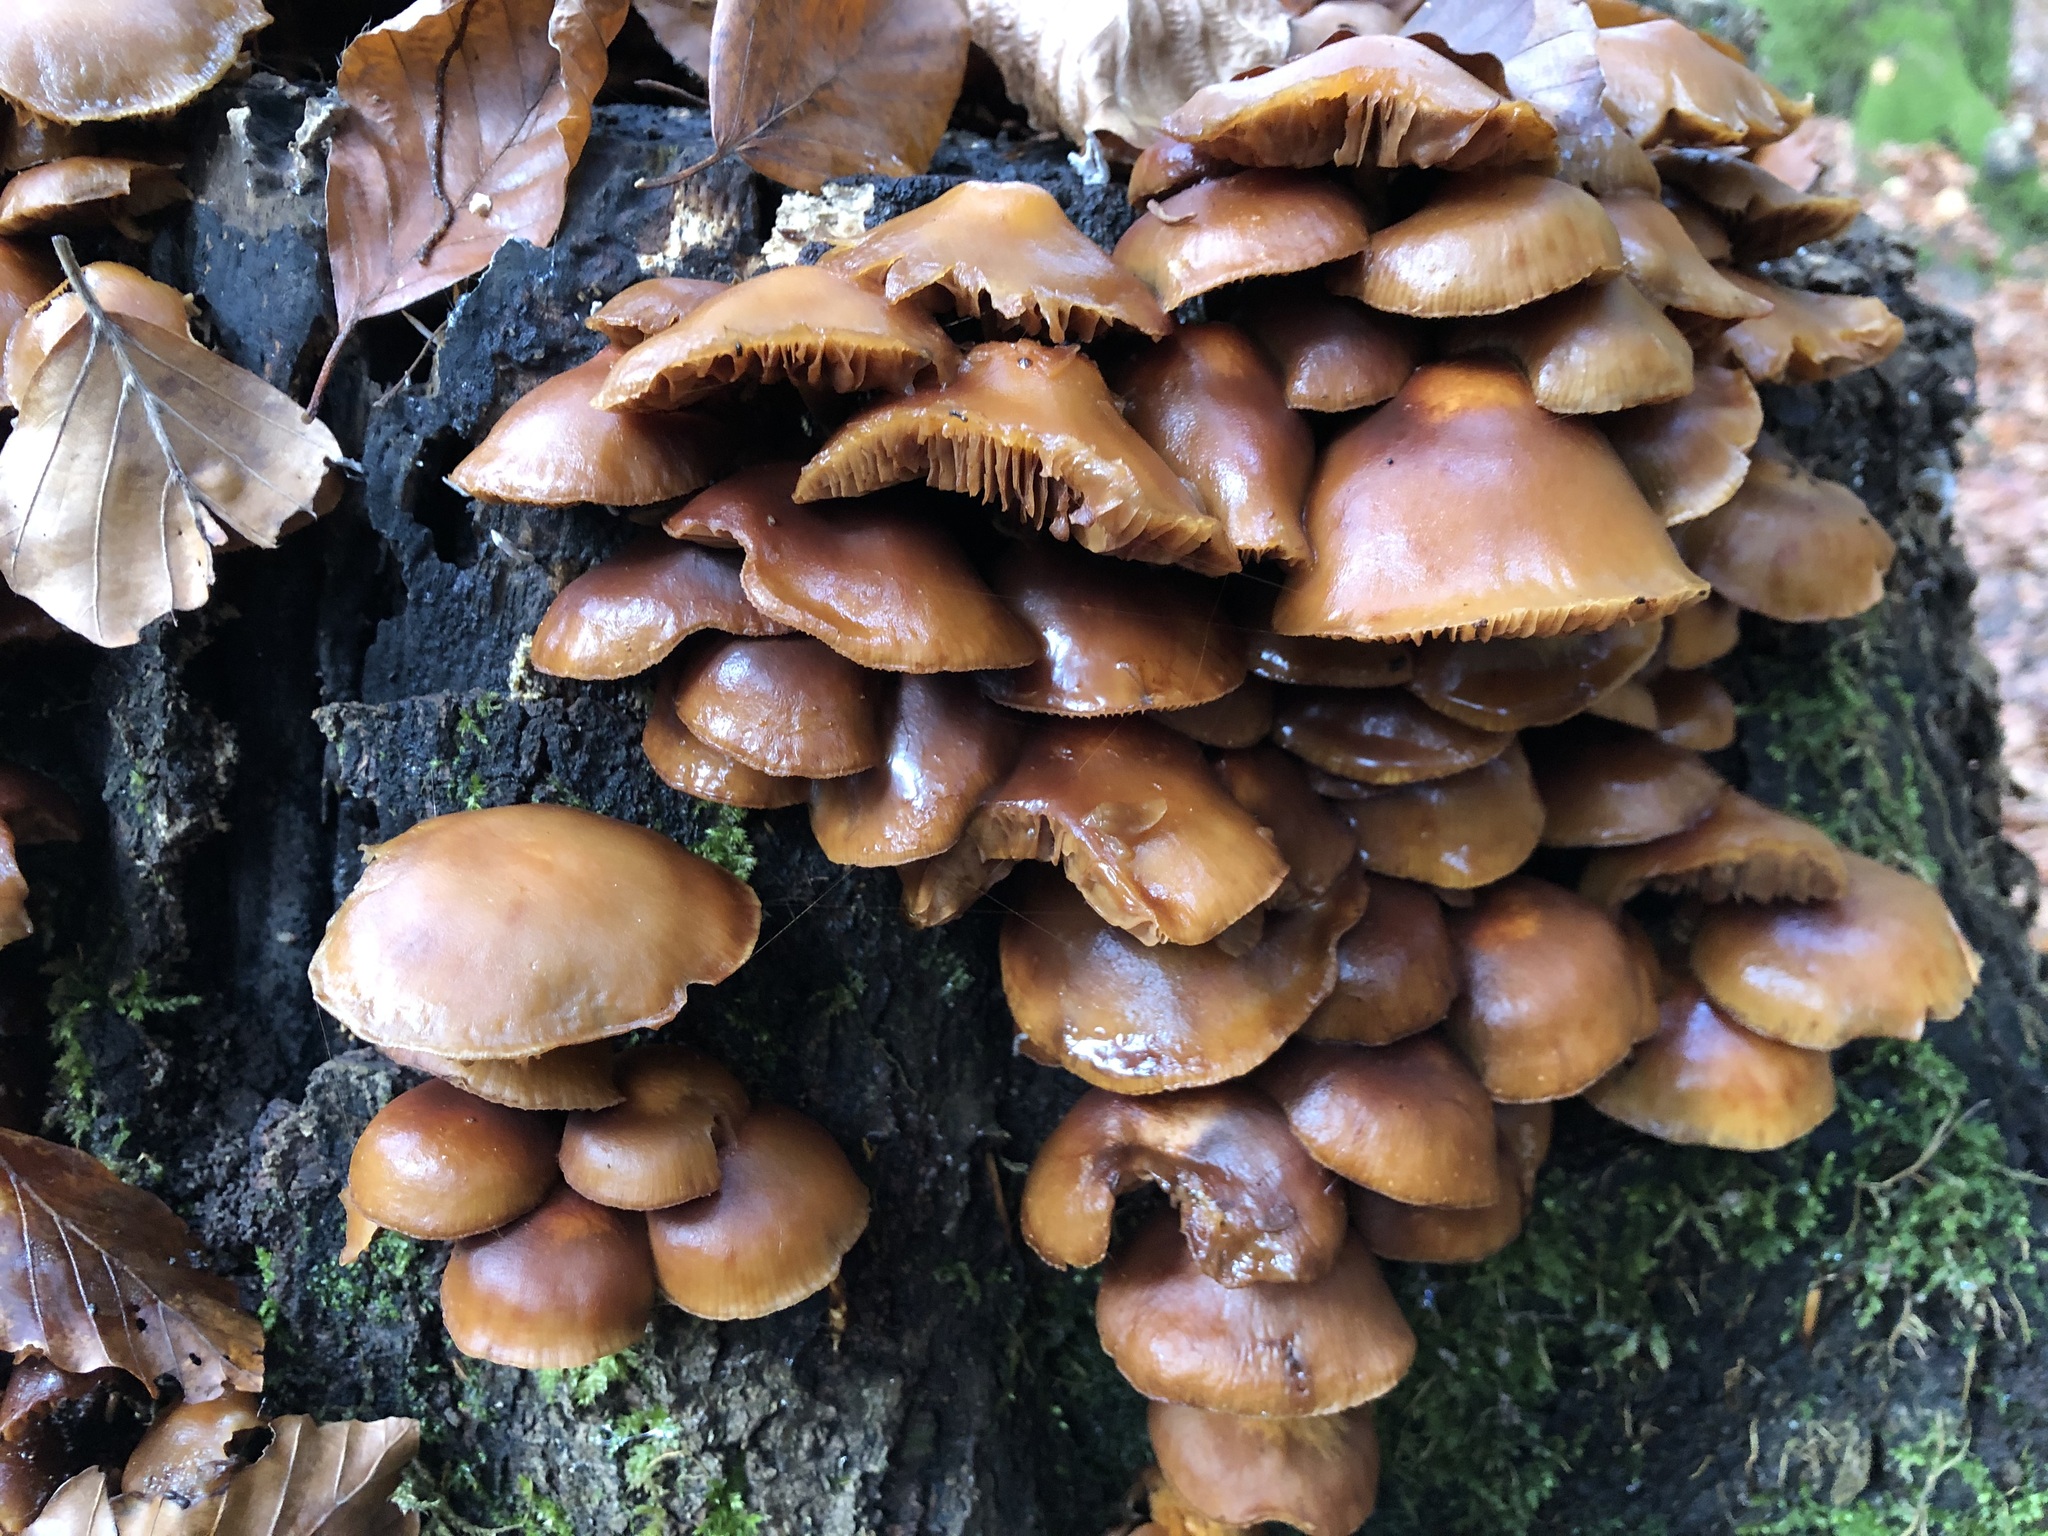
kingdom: Fungi
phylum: Basidiomycota
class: Agaricomycetes
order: Agaricales
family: Strophariaceae
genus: Kuehneromyces
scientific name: Kuehneromyces mutabilis
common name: Sheathed woodtuft
